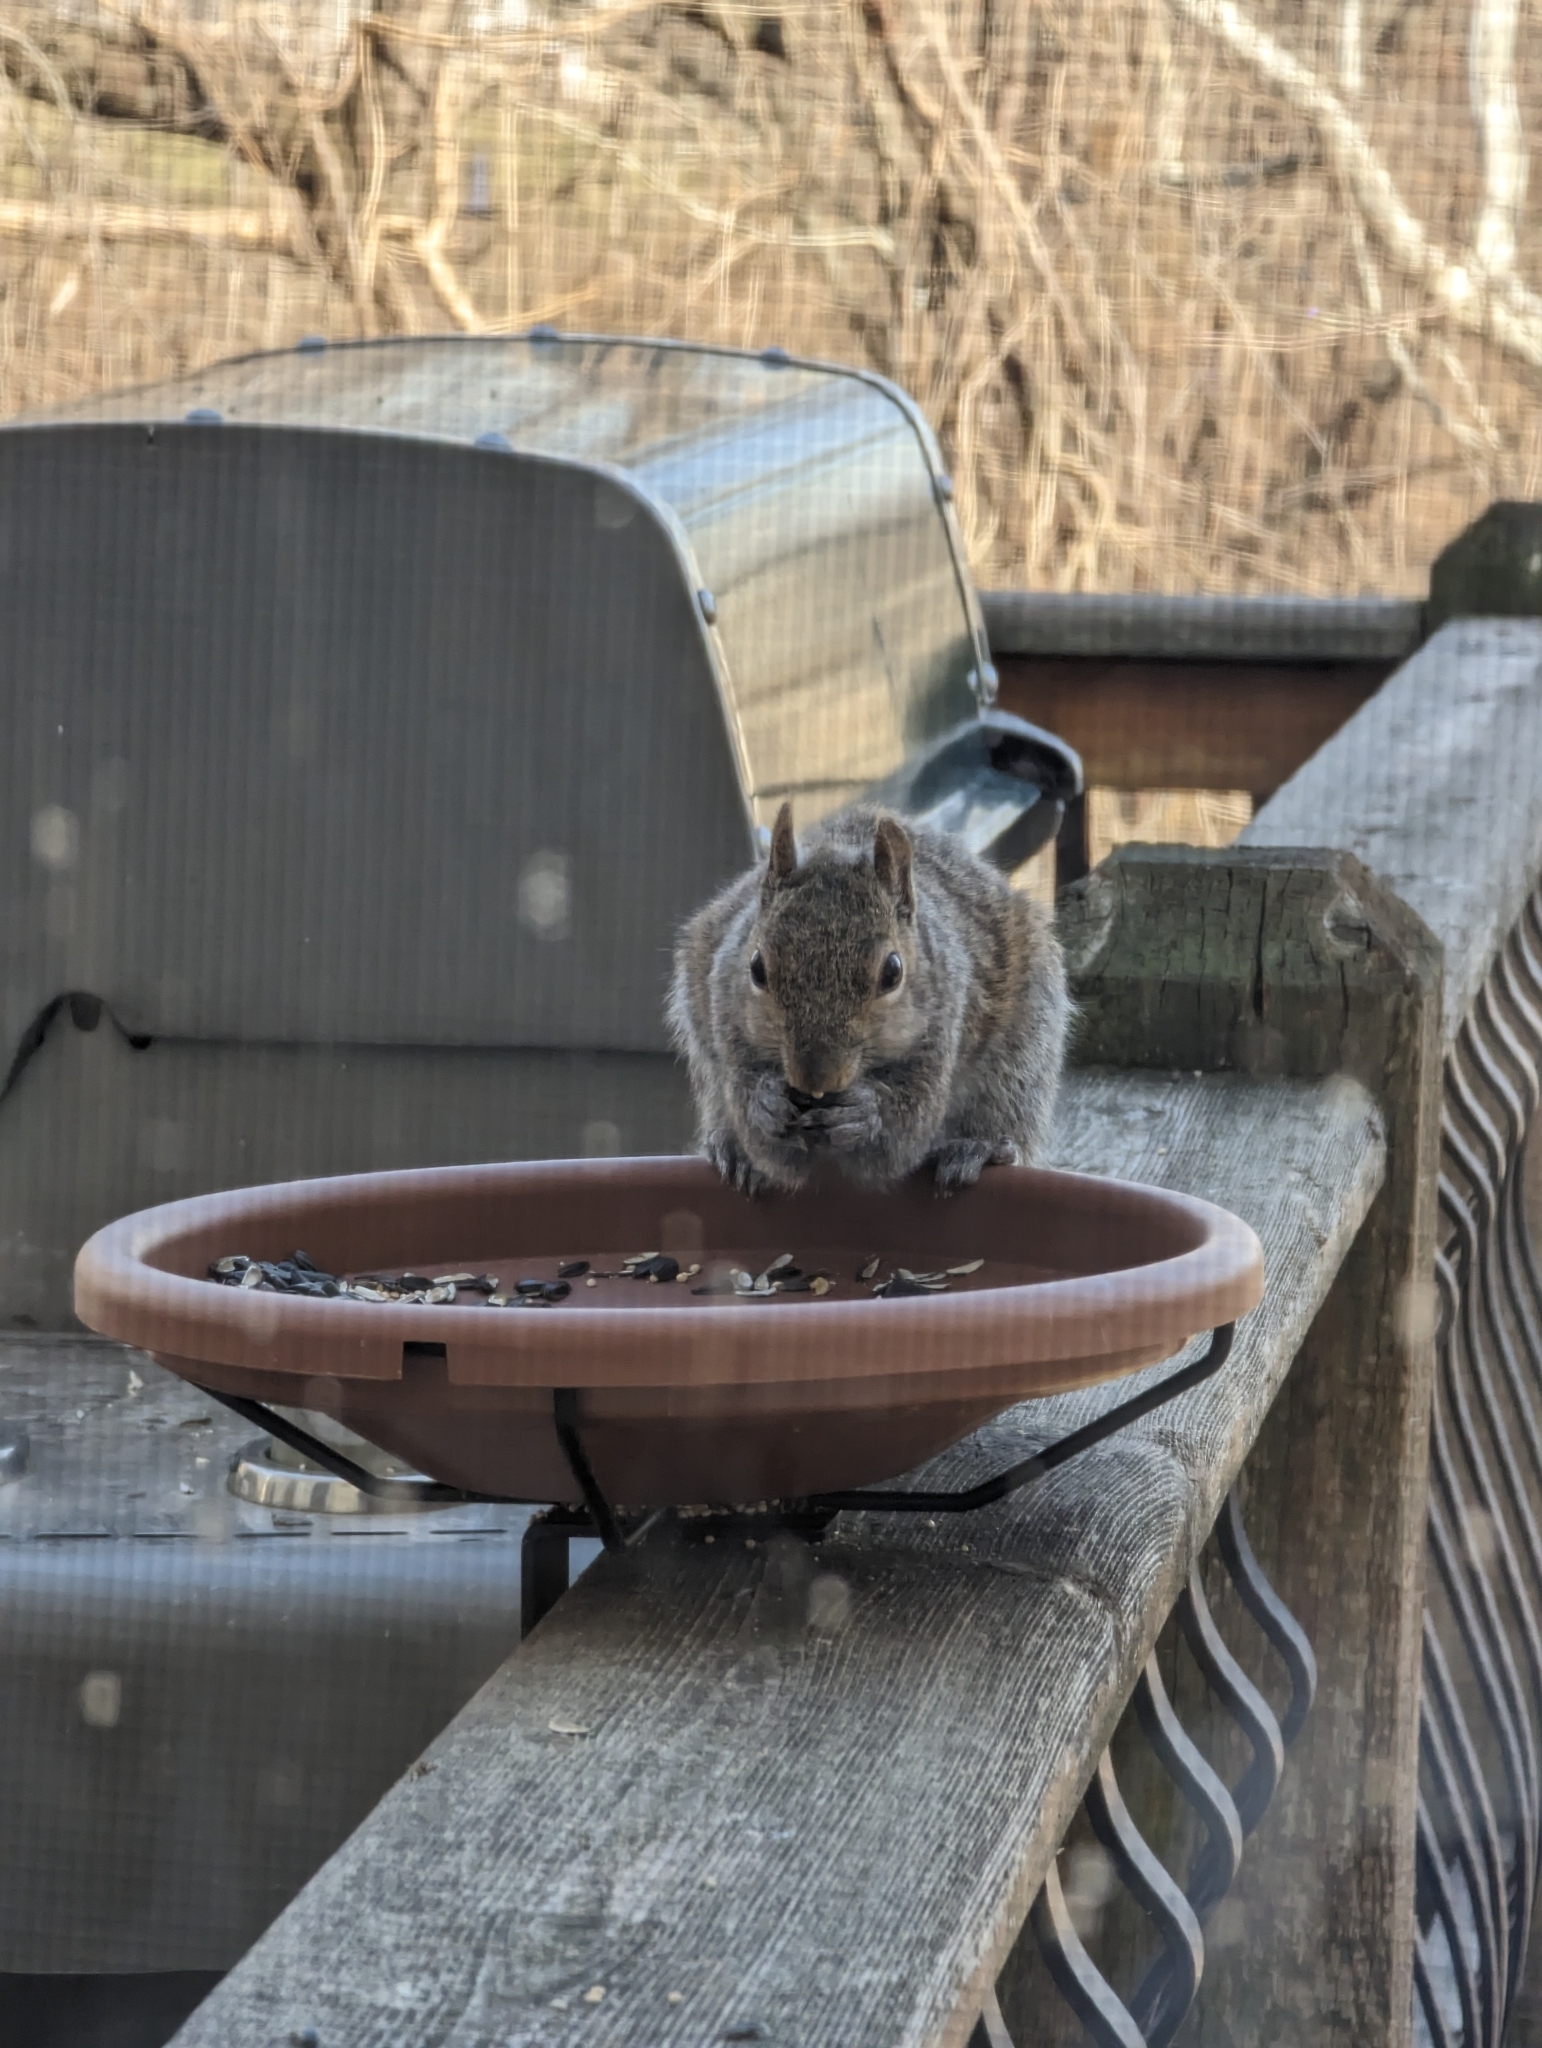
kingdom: Animalia
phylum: Chordata
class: Mammalia
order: Rodentia
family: Sciuridae
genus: Sciurus
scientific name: Sciurus carolinensis
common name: Eastern gray squirrel
